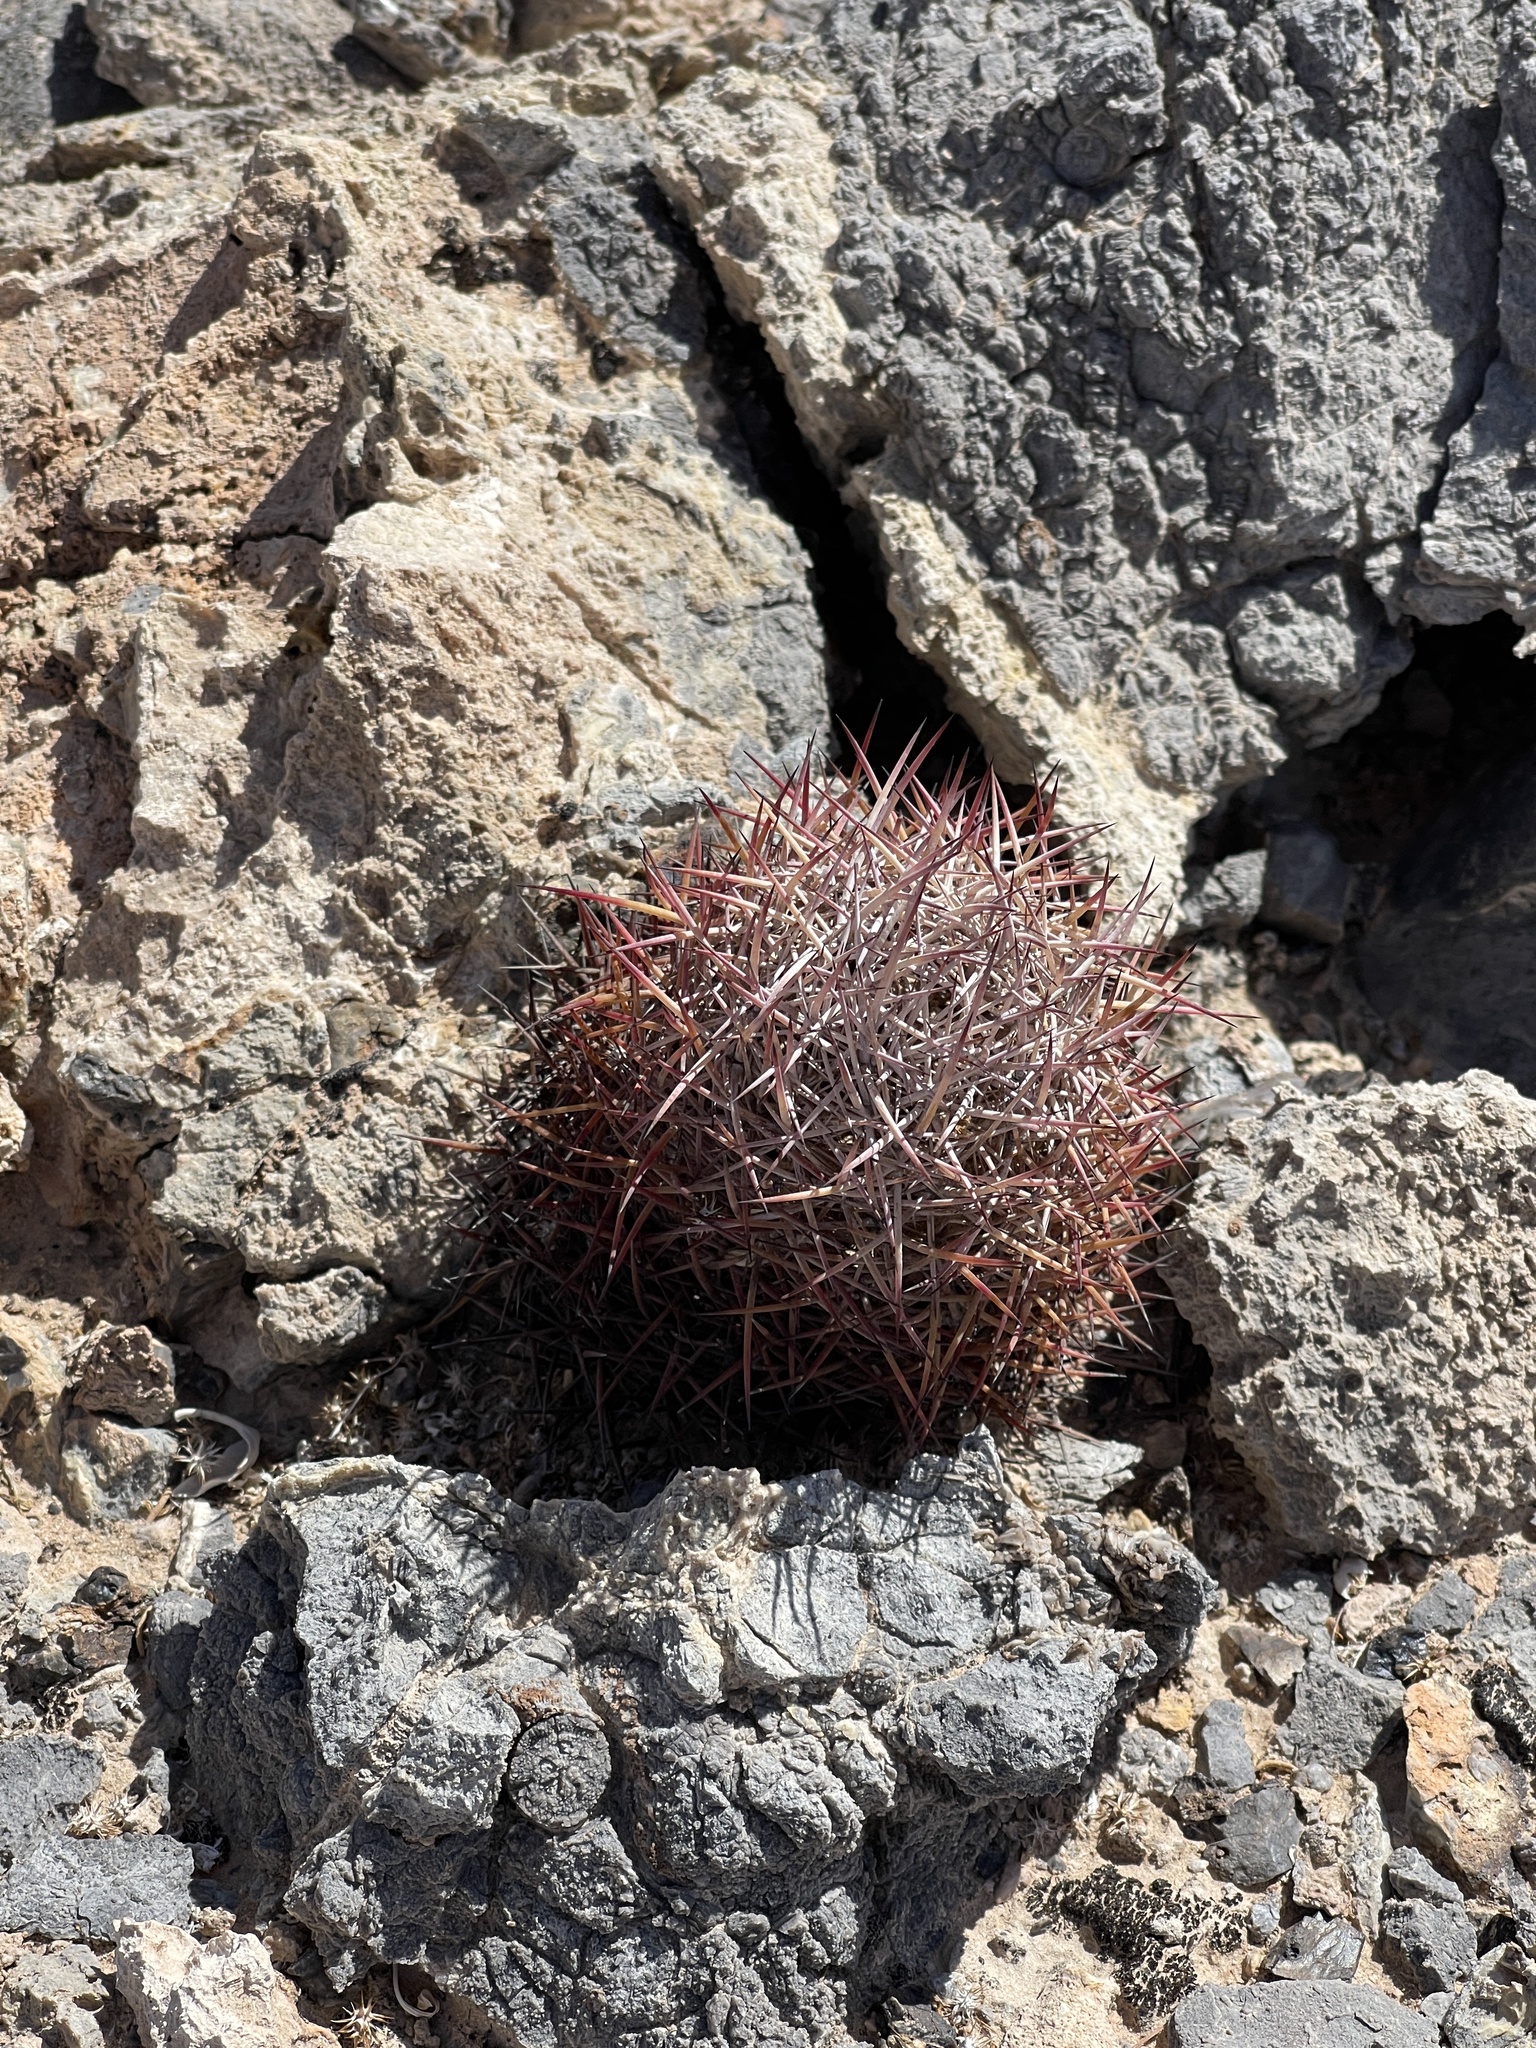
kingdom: Plantae
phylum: Tracheophyta
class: Magnoliopsida
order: Caryophyllales
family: Cactaceae
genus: Ferocactus
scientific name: Ferocactus cylindraceus
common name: California barrel cactus
